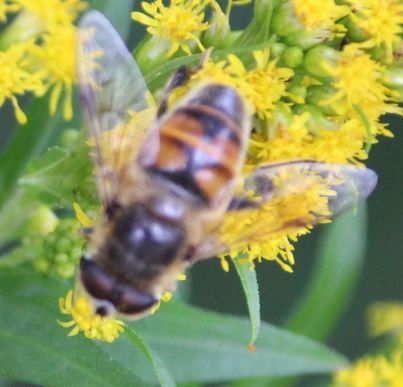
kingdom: Animalia
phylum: Arthropoda
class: Insecta
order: Diptera
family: Syrphidae
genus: Eristalis
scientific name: Eristalis tenax
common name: Drone fly
